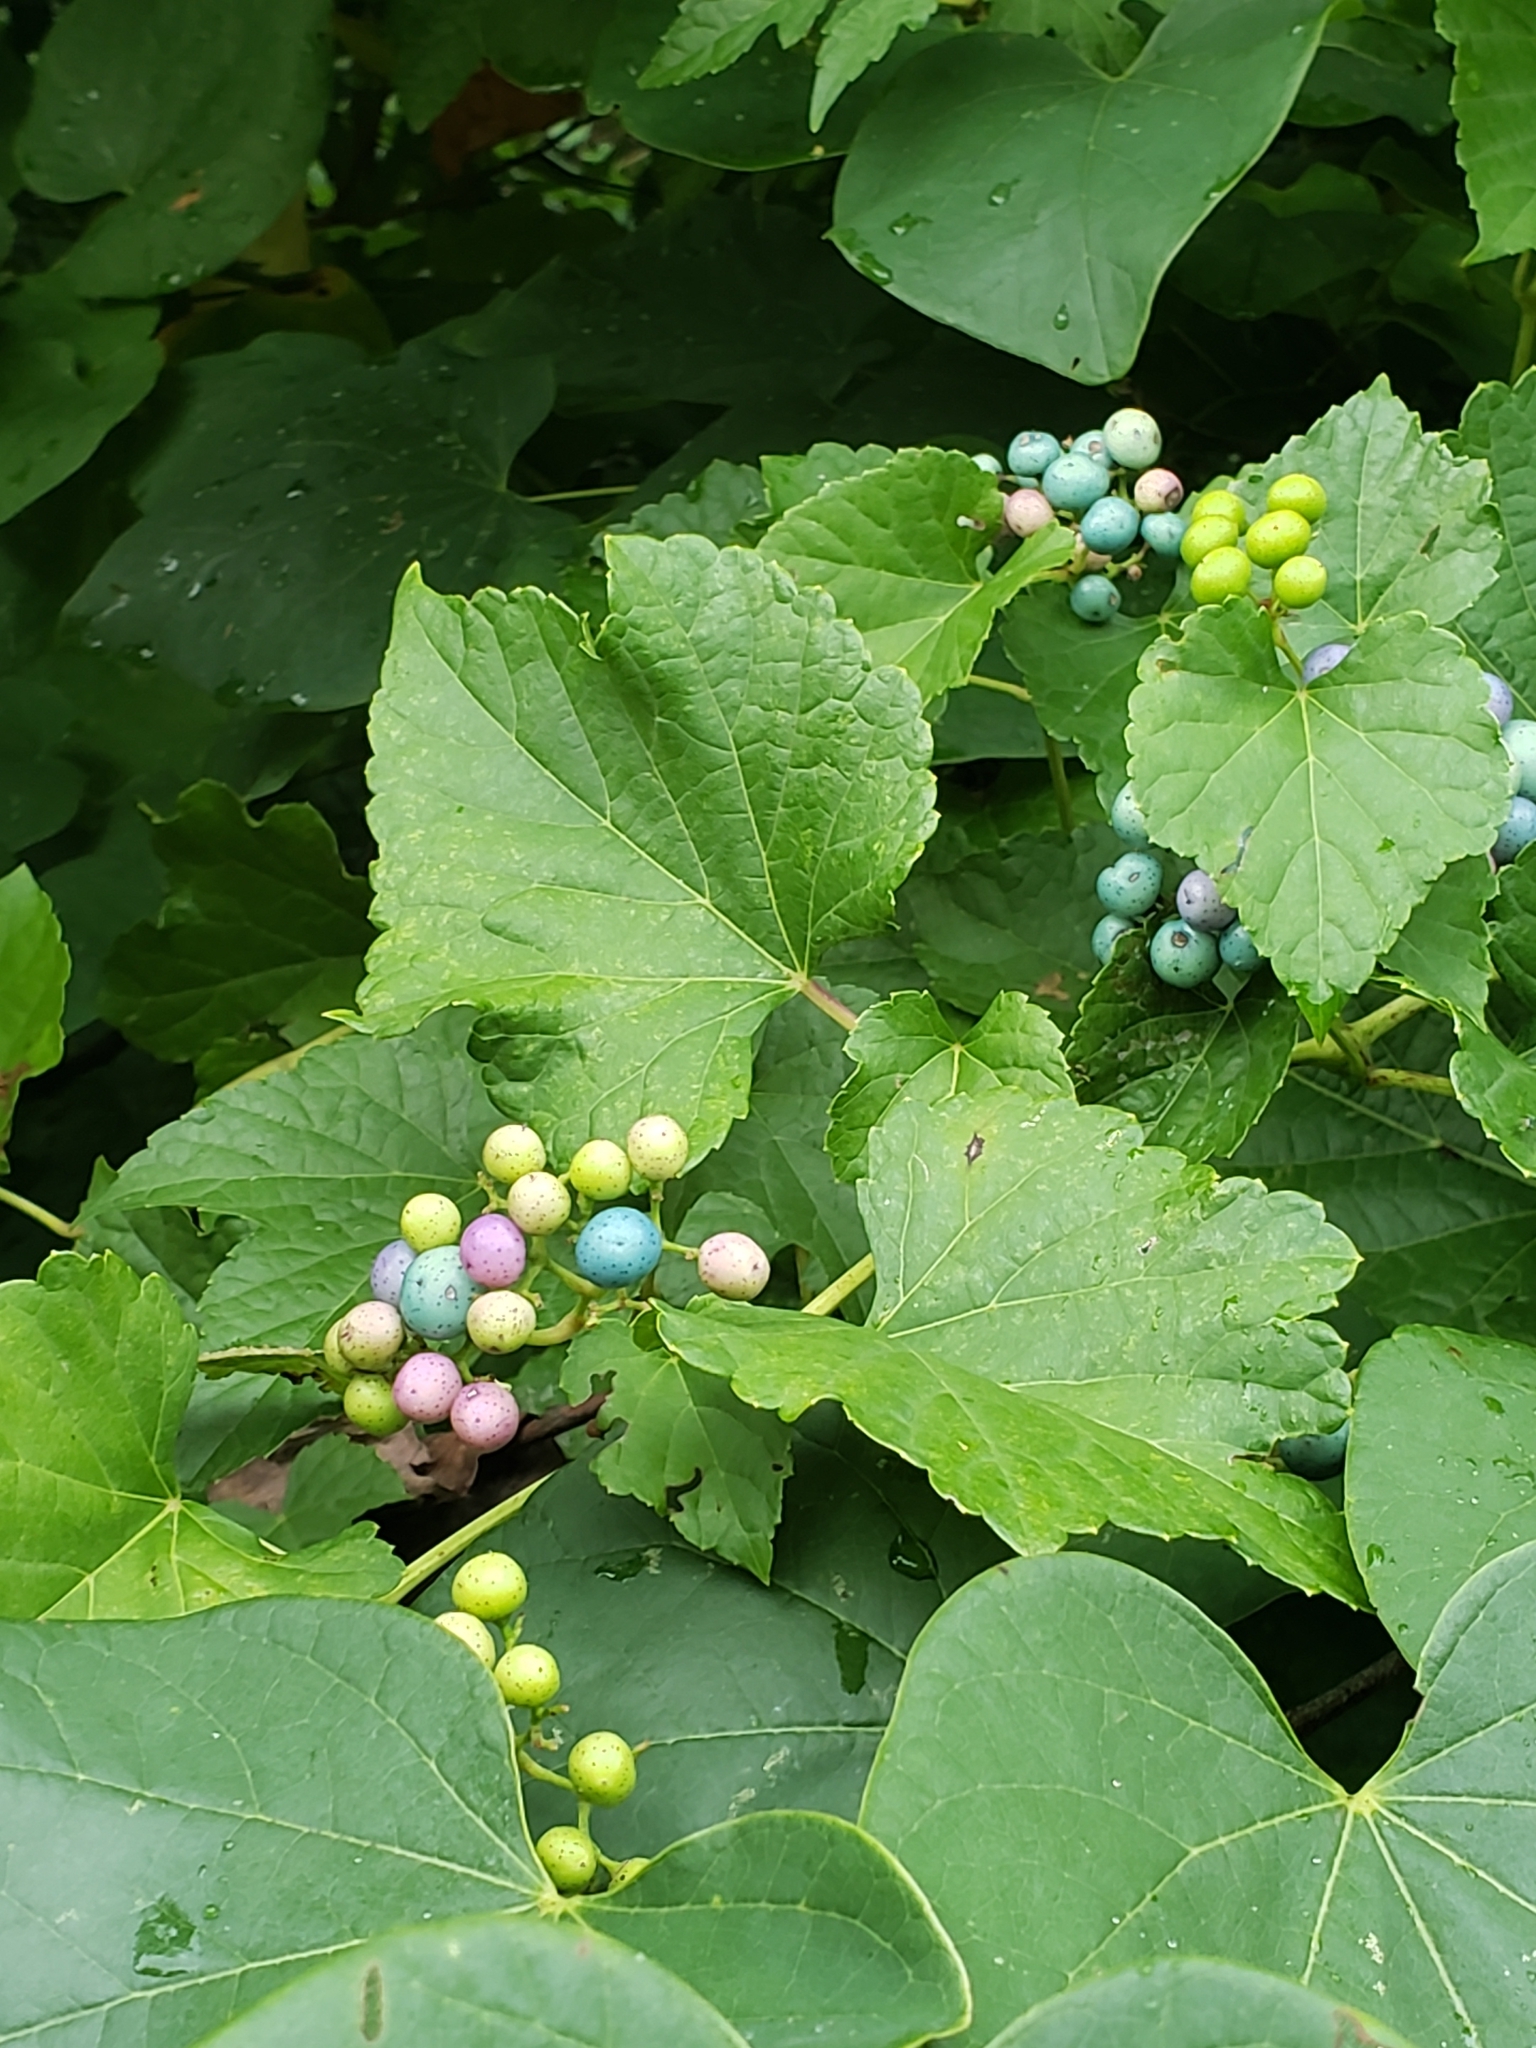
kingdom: Plantae
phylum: Tracheophyta
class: Magnoliopsida
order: Vitales
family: Vitaceae
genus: Ampelopsis
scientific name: Ampelopsis glandulosa
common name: Amur peppervine
